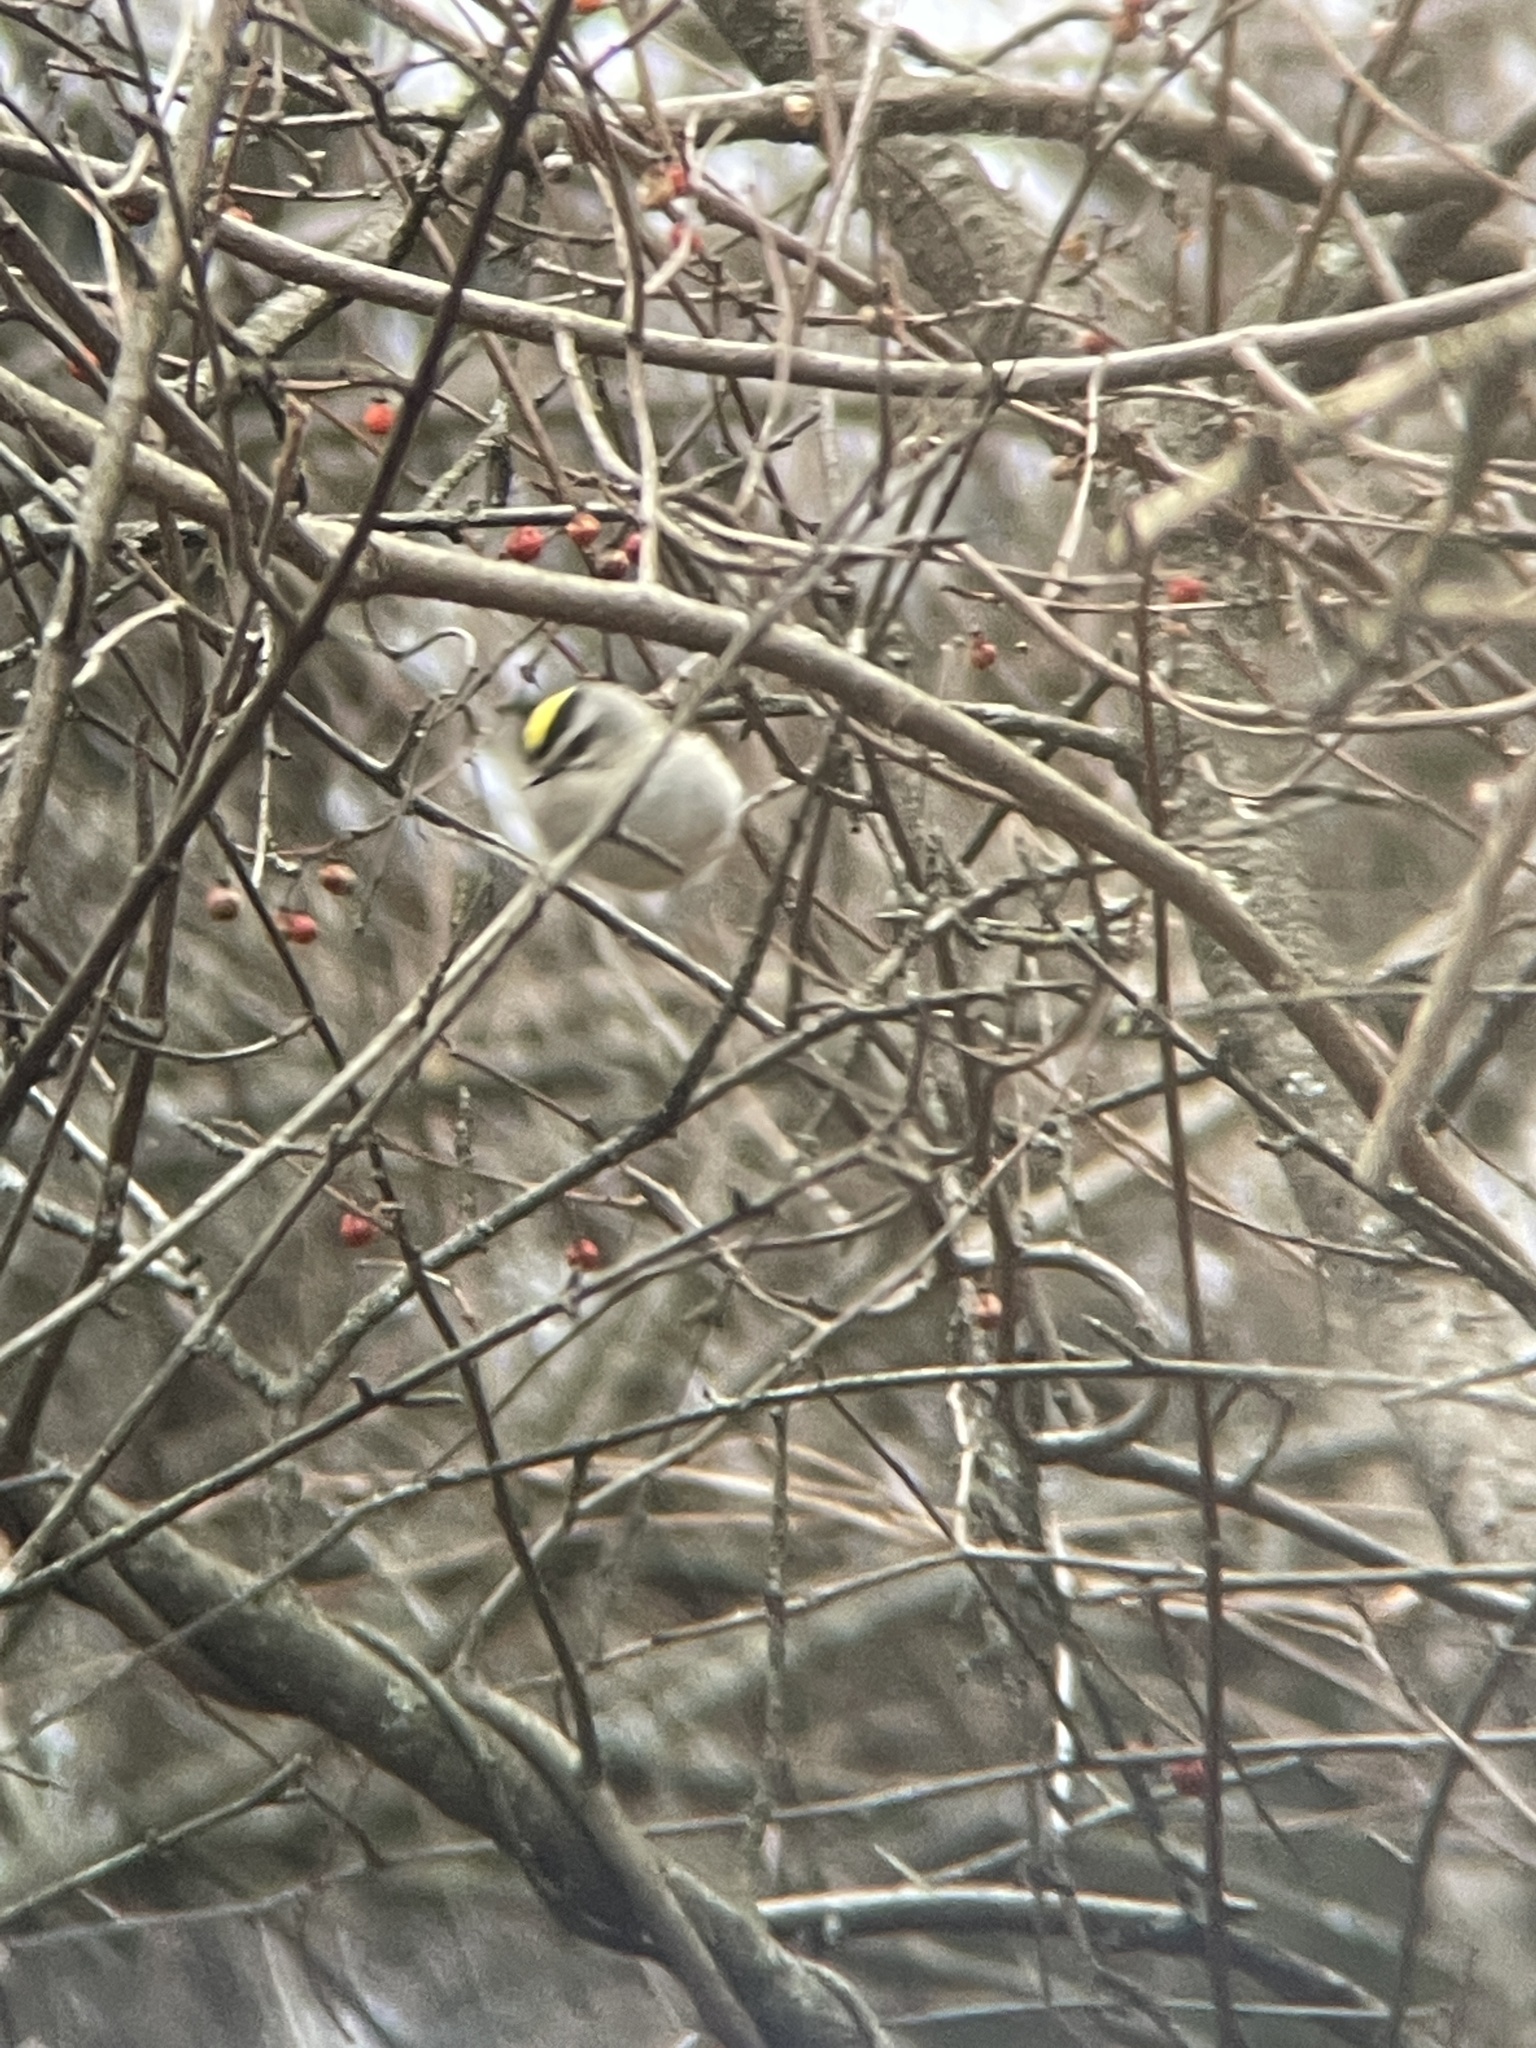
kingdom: Animalia
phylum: Chordata
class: Aves
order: Passeriformes
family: Regulidae
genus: Regulus
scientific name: Regulus satrapa
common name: Golden-crowned kinglet
